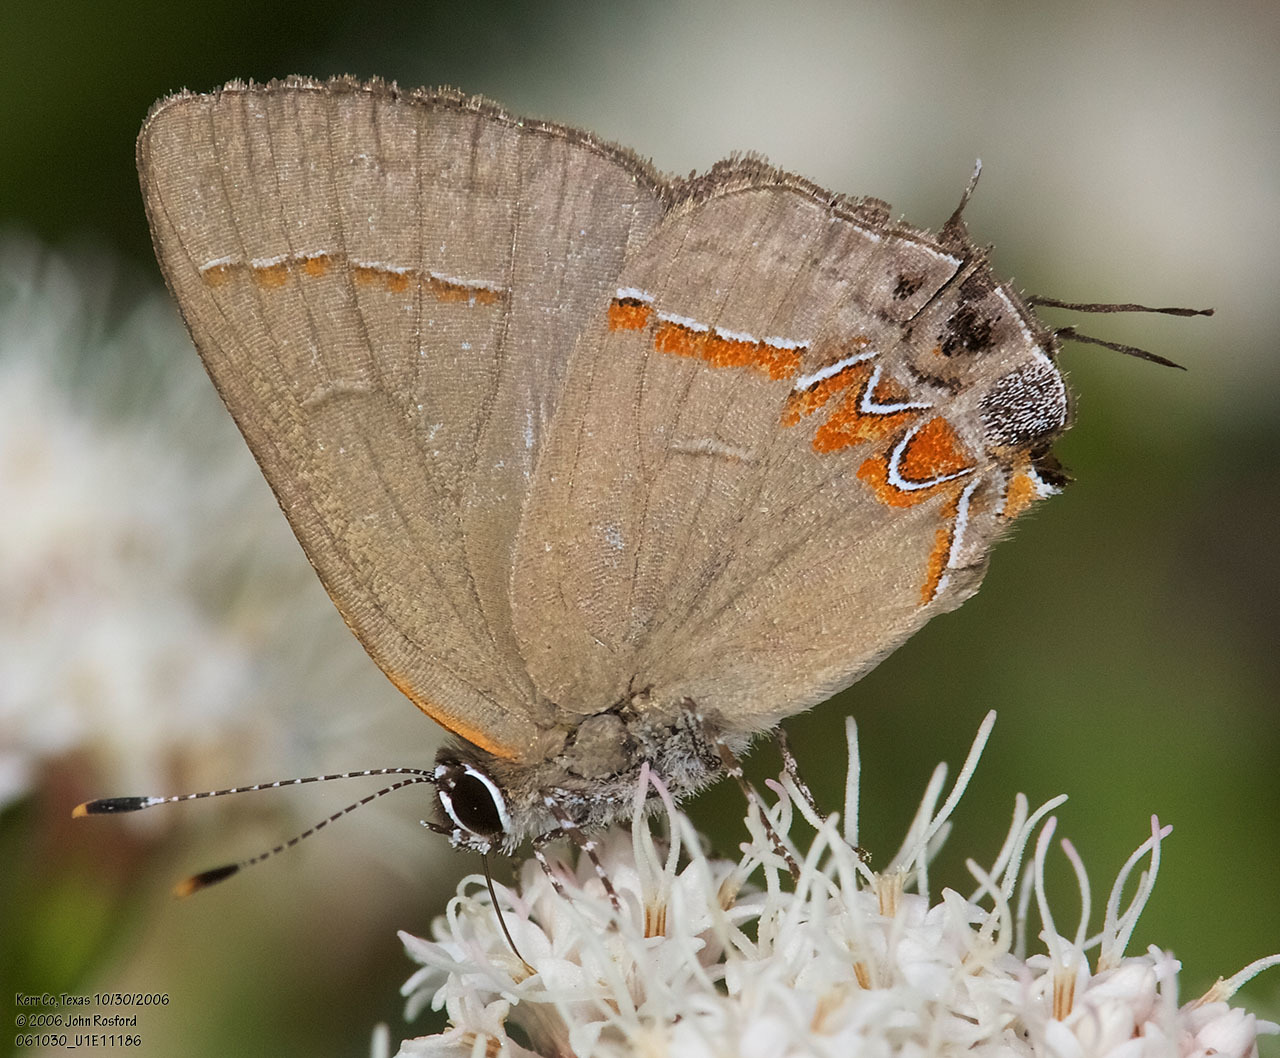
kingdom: Animalia
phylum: Arthropoda
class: Insecta
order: Lepidoptera
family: Lycaenidae
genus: Calycopis
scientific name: Calycopis isobeon
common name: Dusky-blue groundstreak
